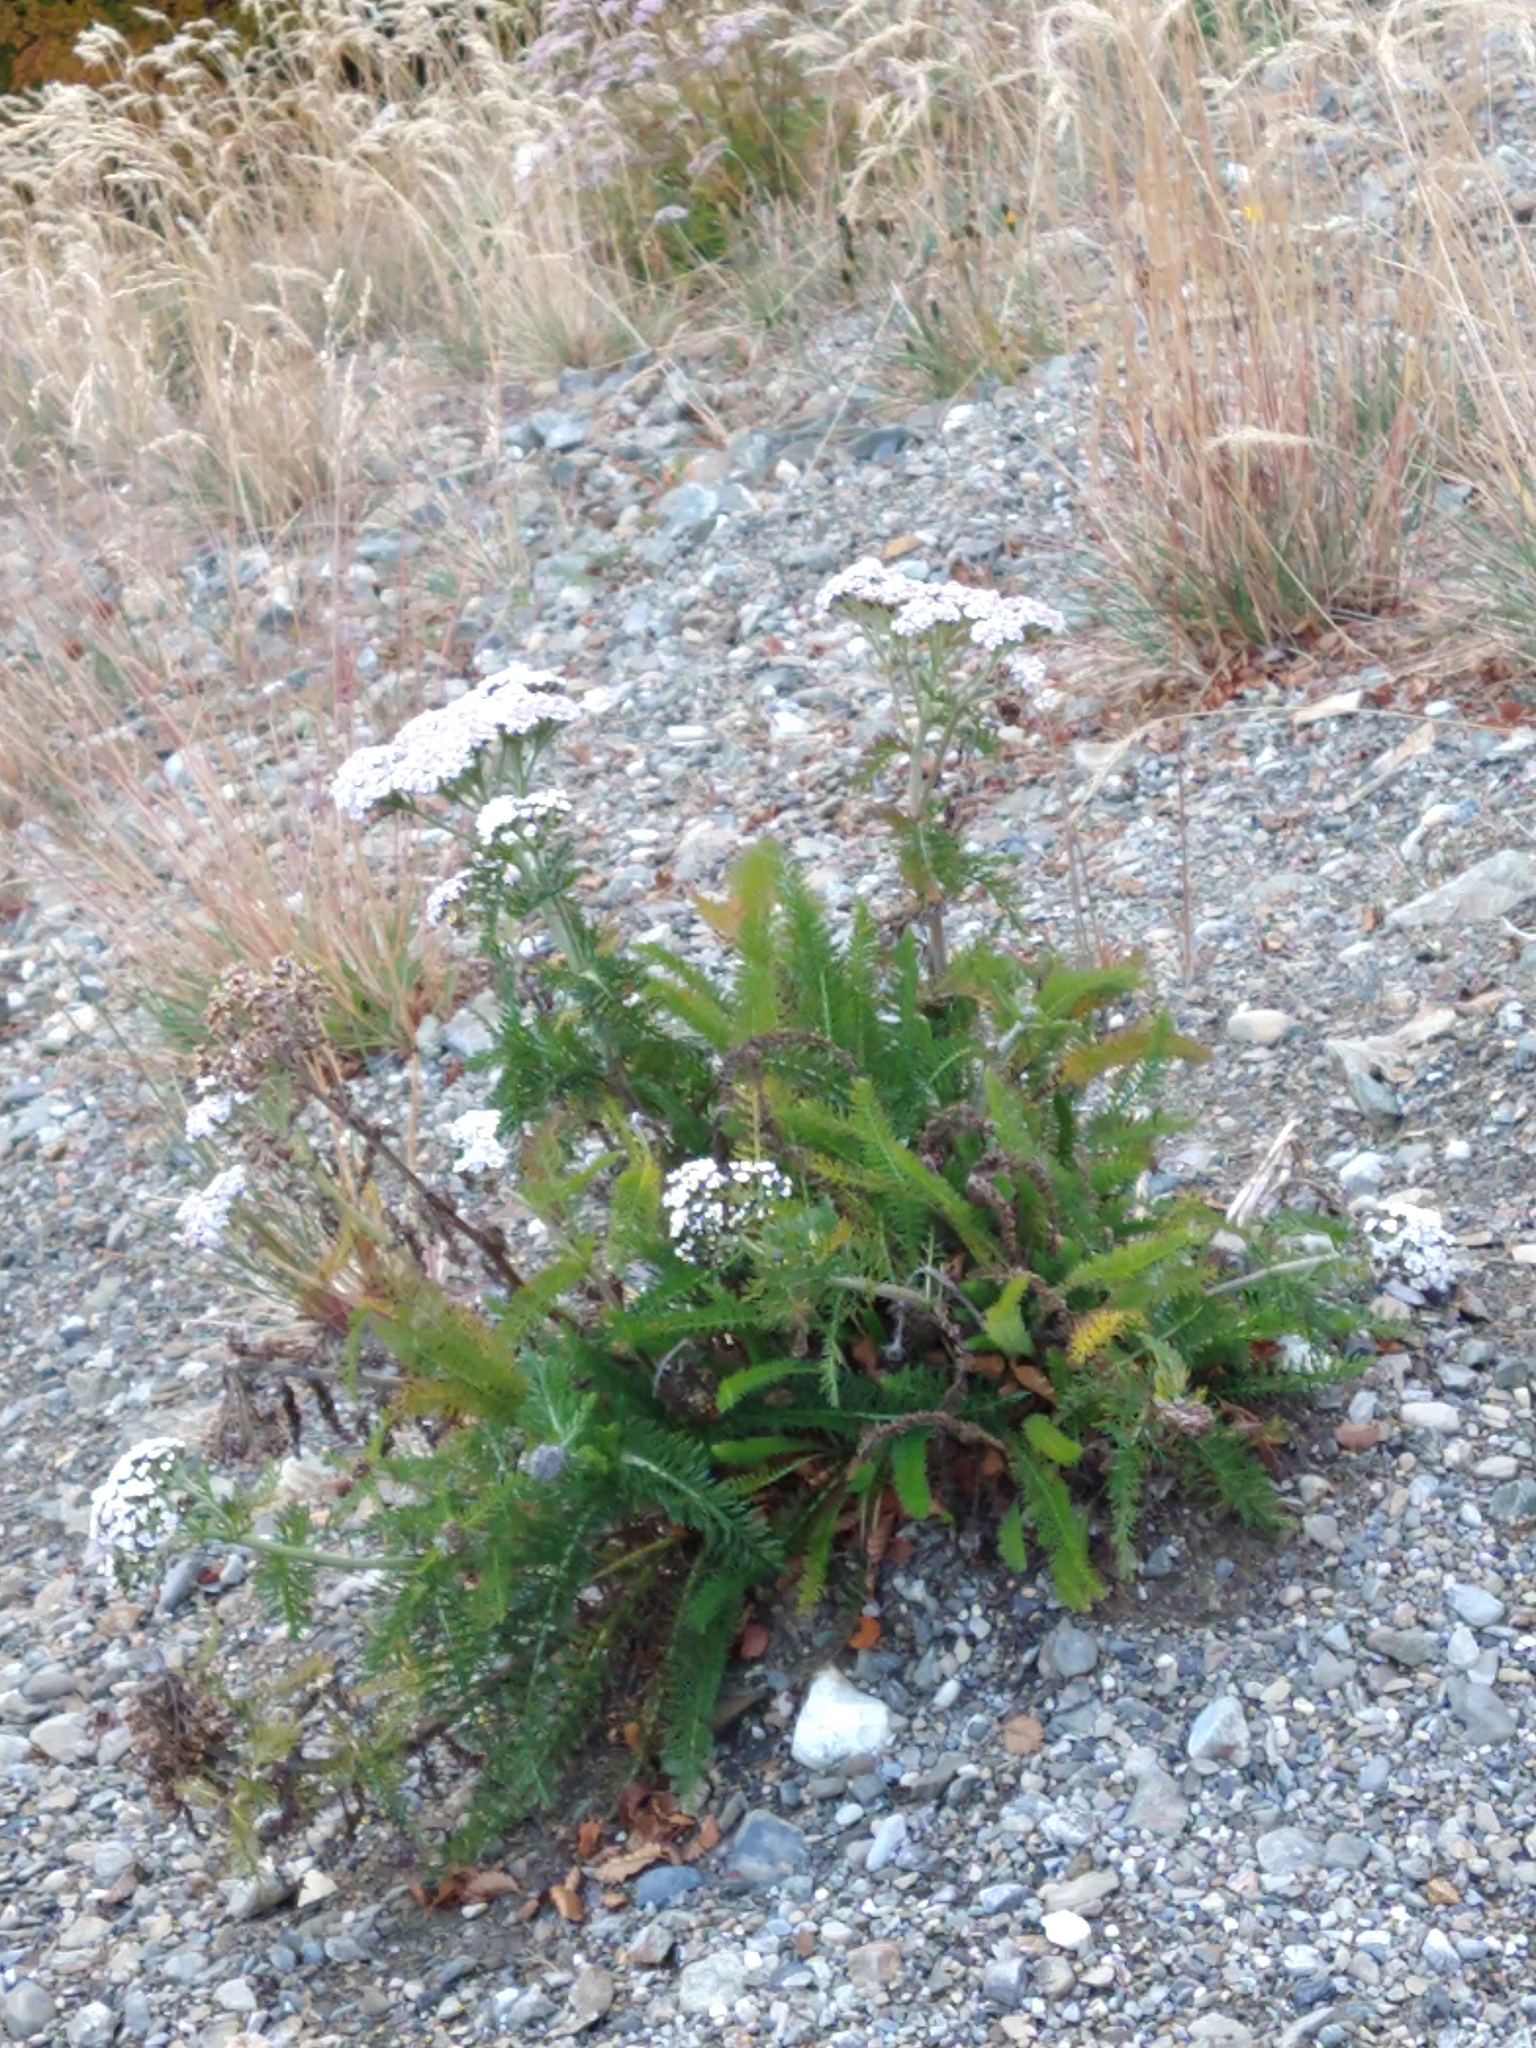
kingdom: Plantae
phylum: Tracheophyta
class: Magnoliopsida
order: Asterales
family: Asteraceae
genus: Achillea
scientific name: Achillea millefolium
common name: Yarrow
